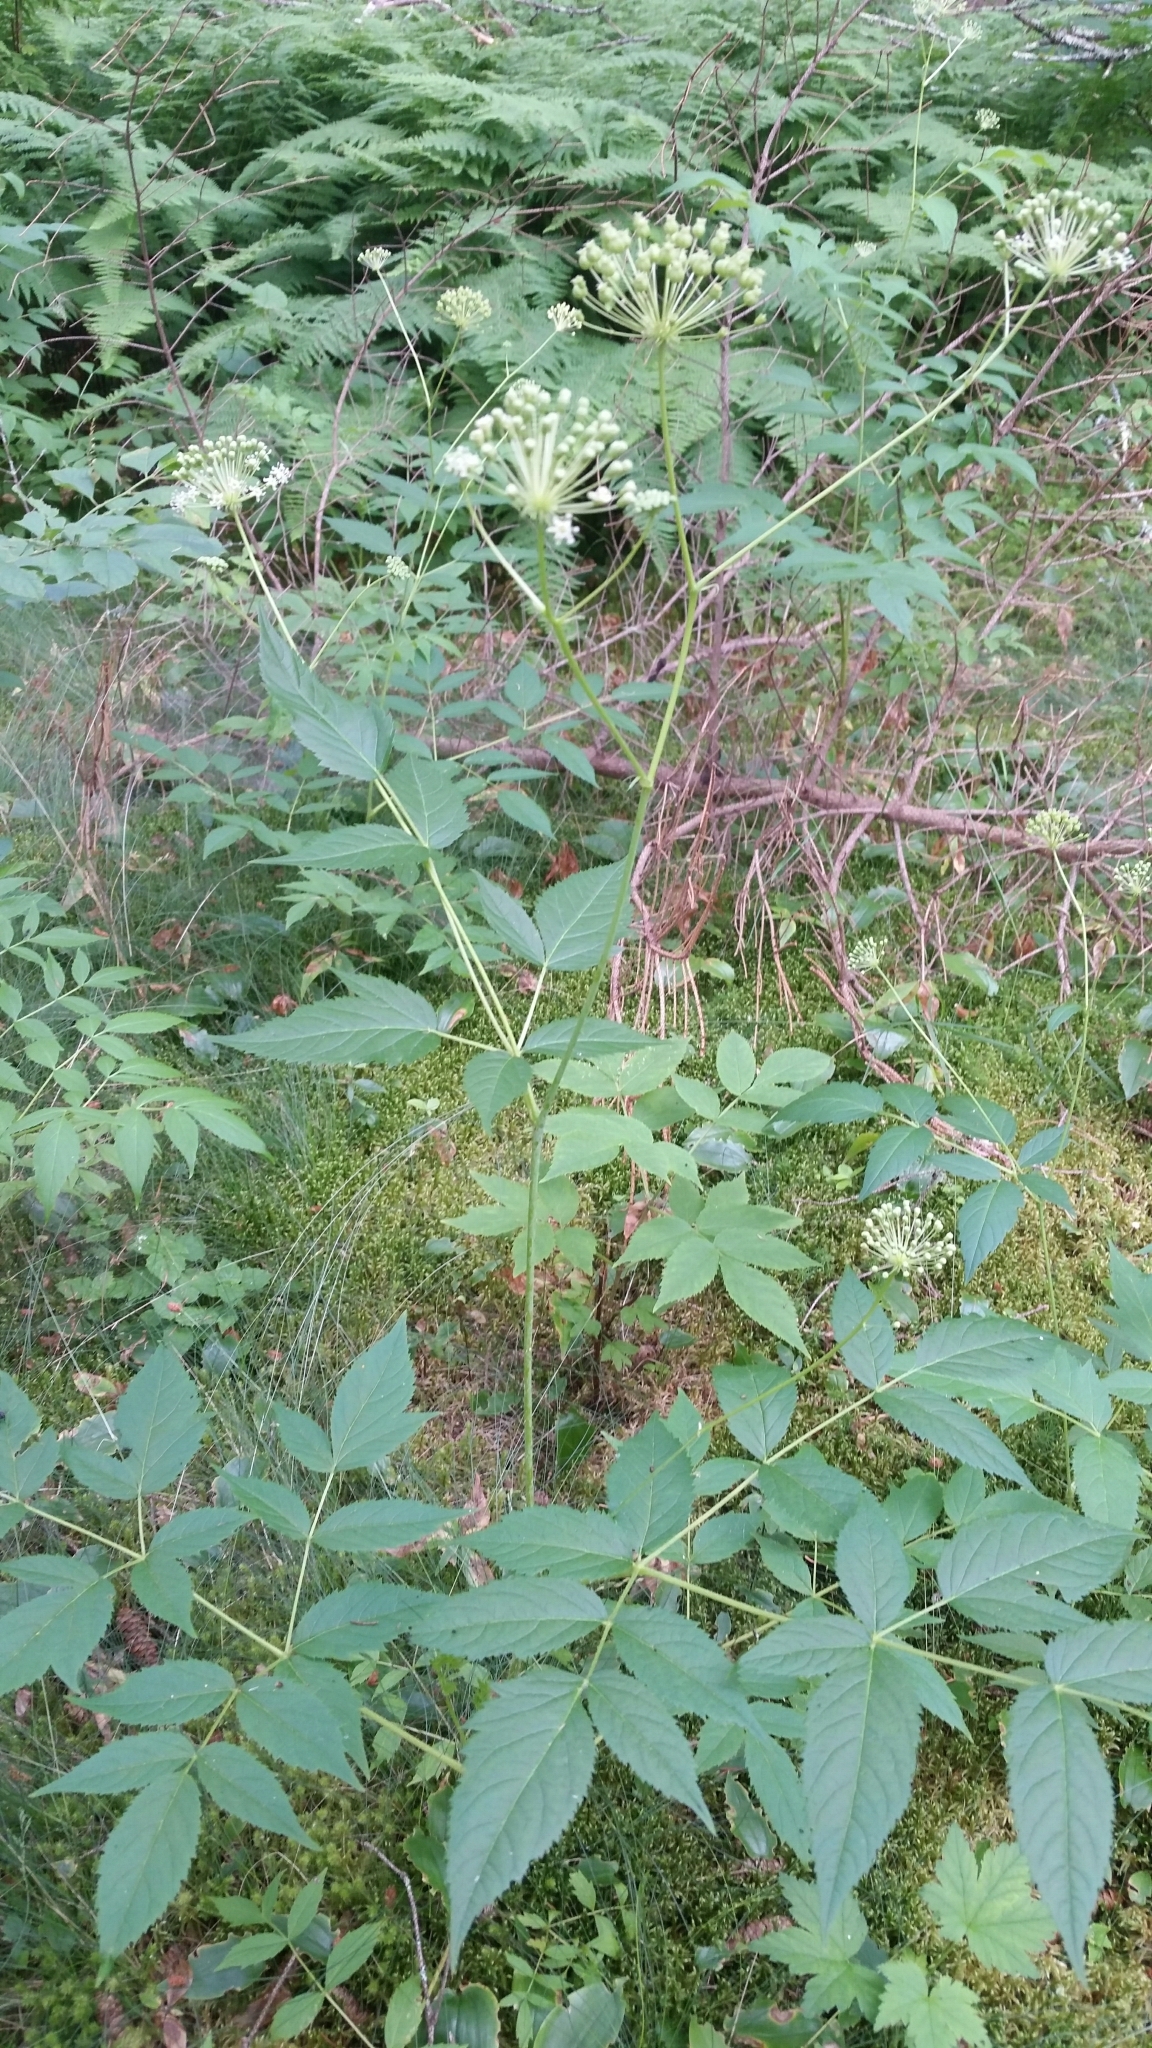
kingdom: Plantae
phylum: Tracheophyta
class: Magnoliopsida
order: Apiales
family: Araliaceae
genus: Aralia
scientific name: Aralia hispida
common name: Bristly sarsaparilla
